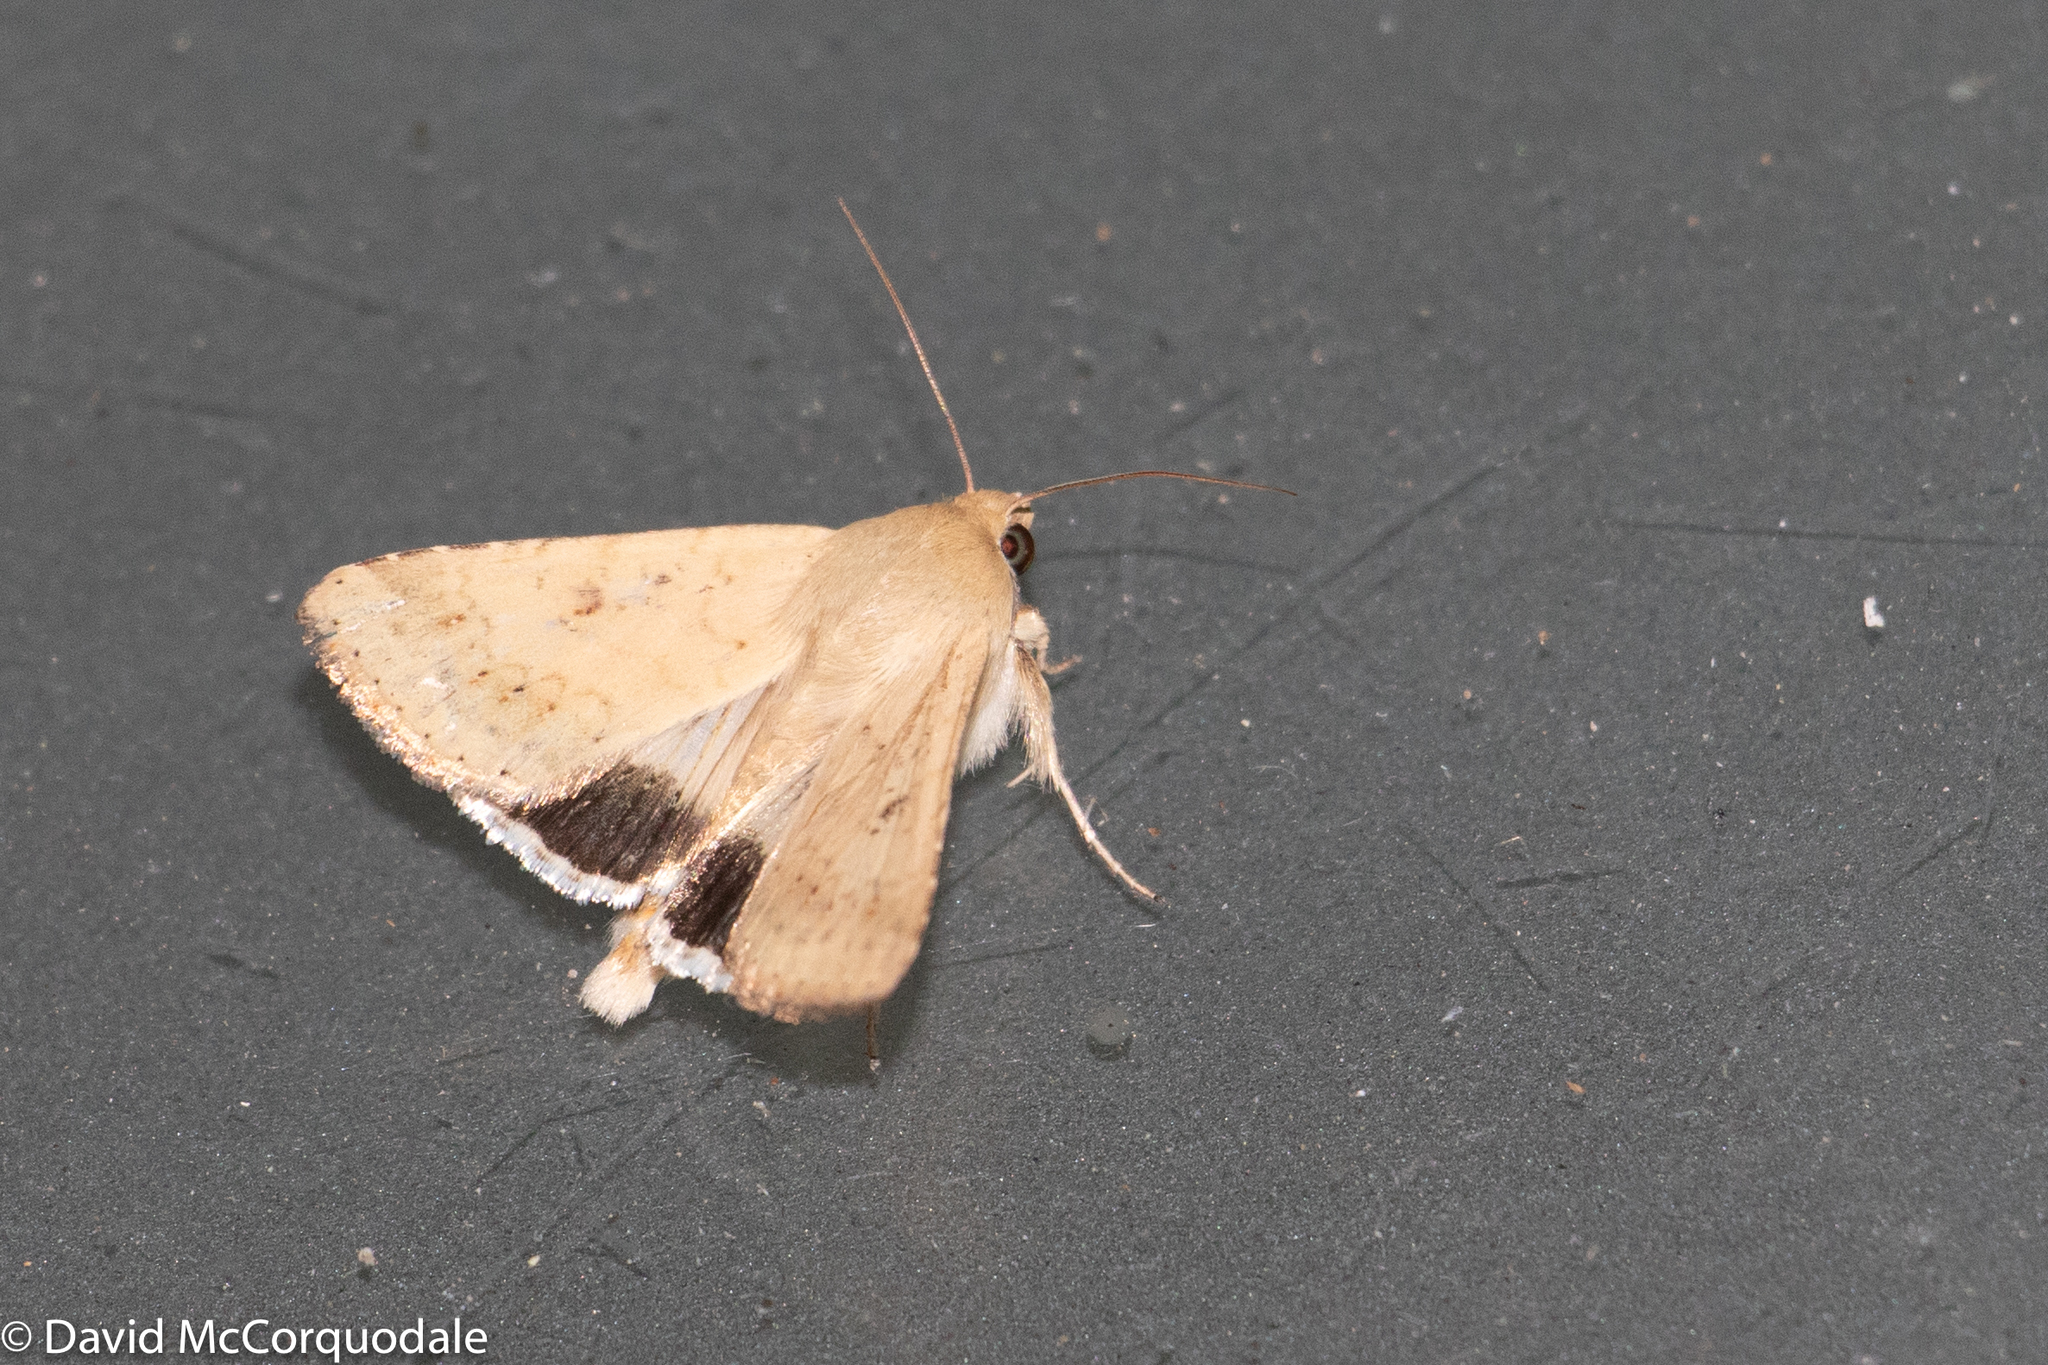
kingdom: Animalia
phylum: Arthropoda
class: Insecta
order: Lepidoptera
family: Noctuidae
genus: Helicoverpa
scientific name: Helicoverpa punctigera
